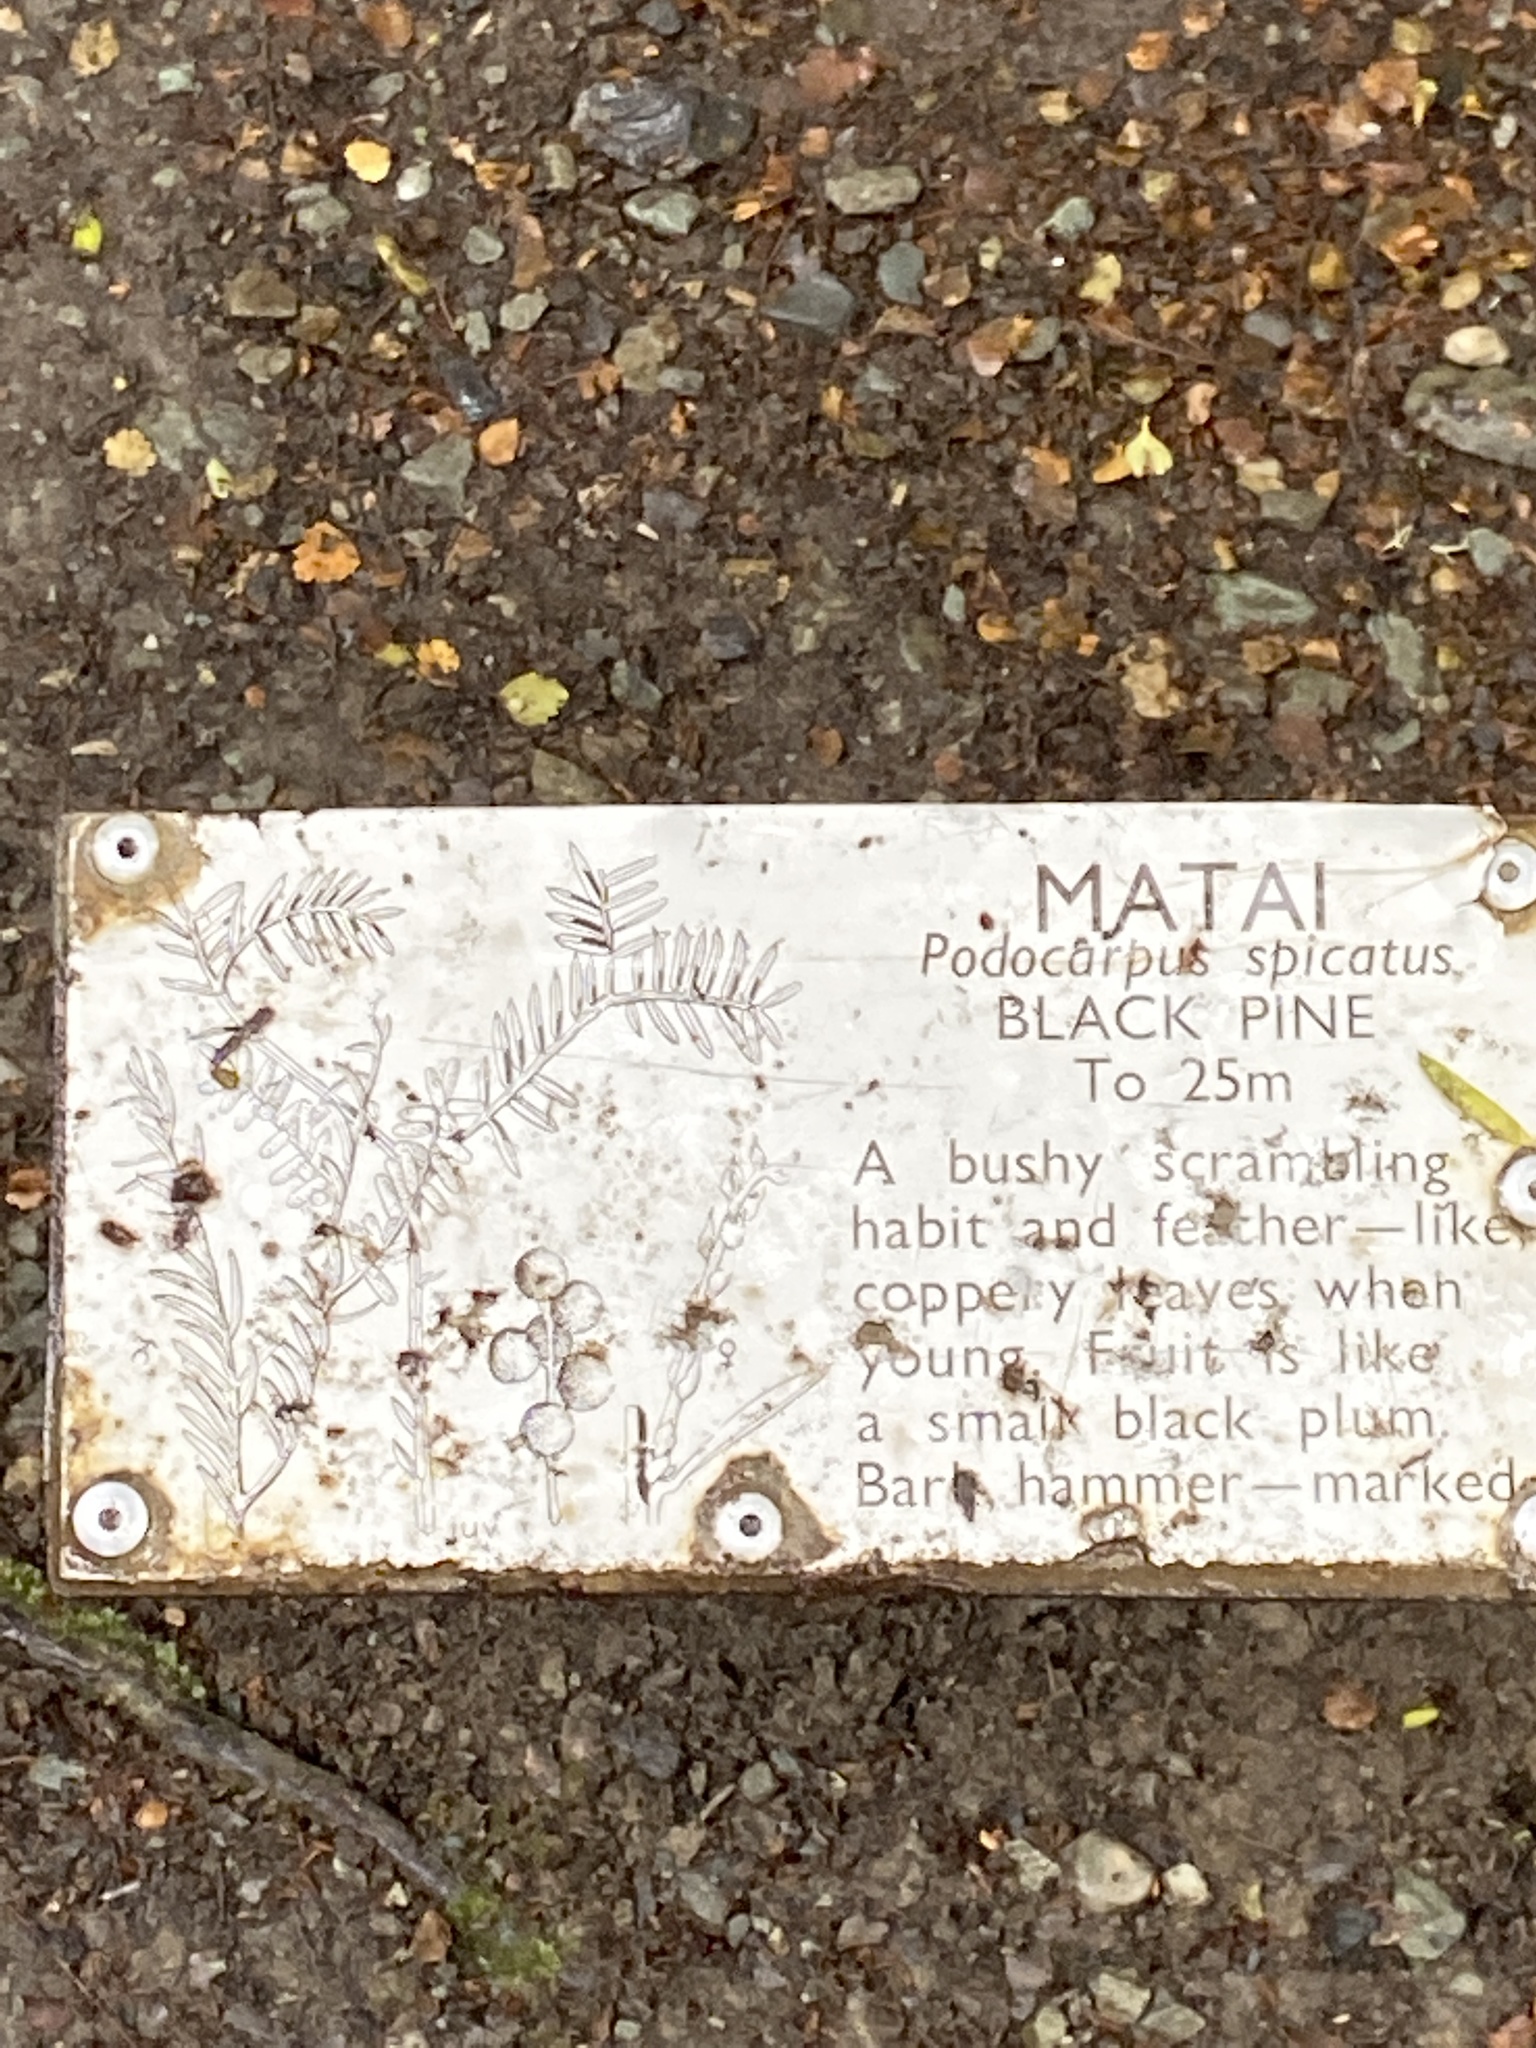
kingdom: Plantae
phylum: Tracheophyta
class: Pinopsida
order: Pinales
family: Podocarpaceae
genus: Prumnopitys
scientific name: Prumnopitys taxifolia
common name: Matai
